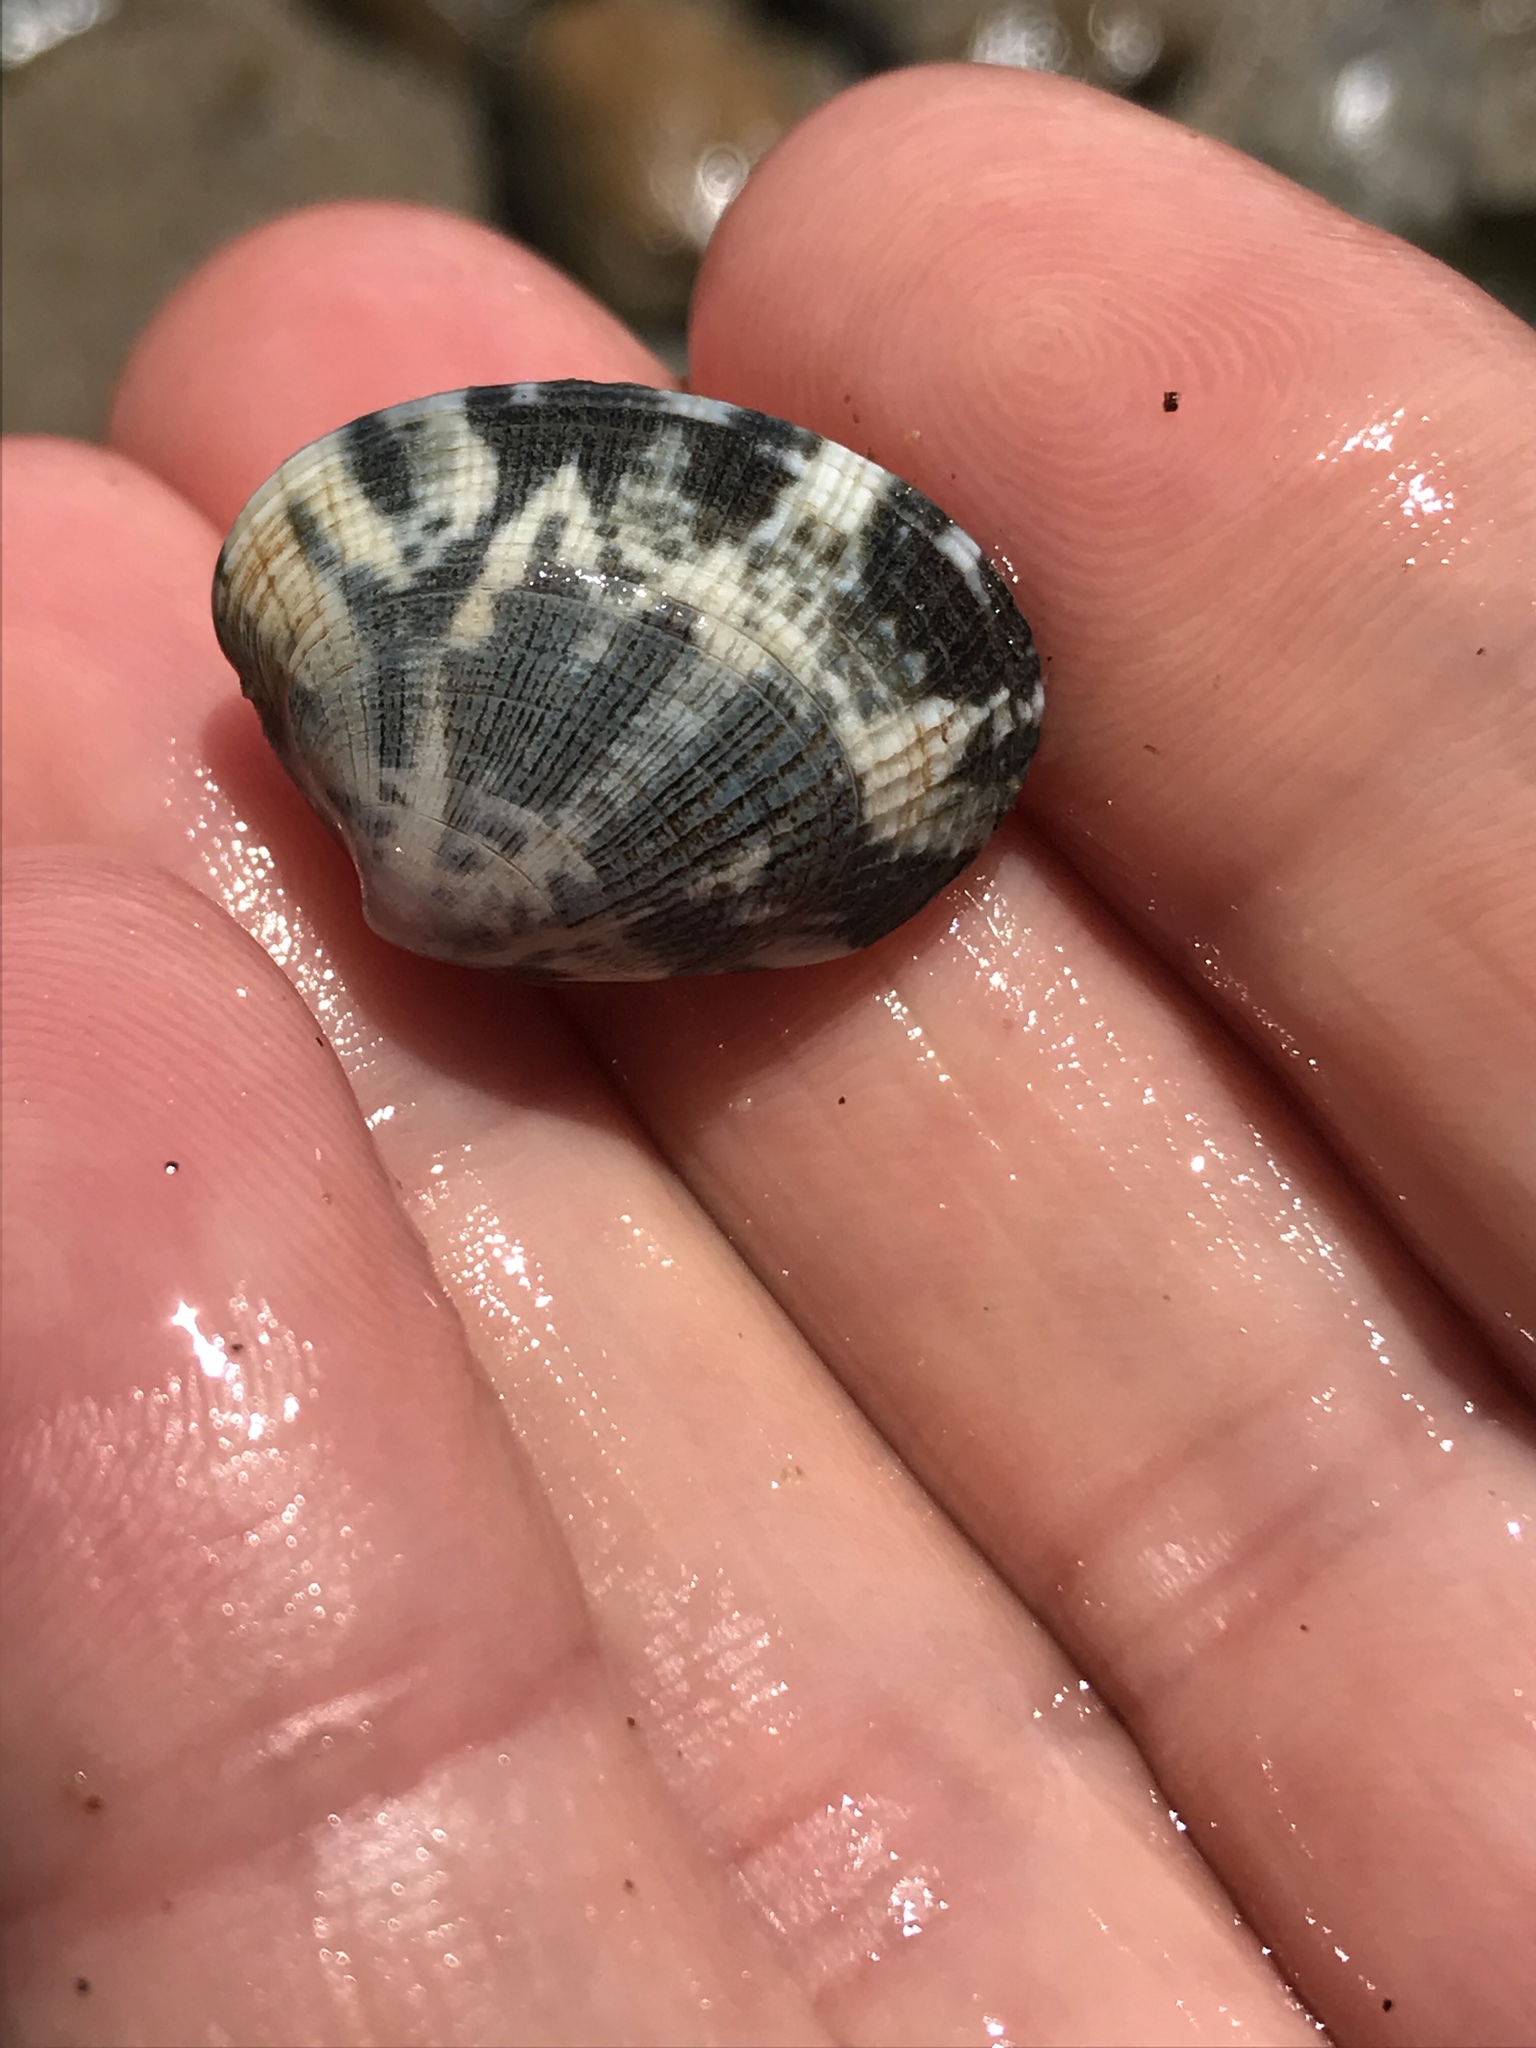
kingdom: Animalia
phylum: Mollusca
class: Bivalvia
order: Venerida
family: Veneridae
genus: Ruditapes
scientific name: Ruditapes philippinarum
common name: Manila clam
